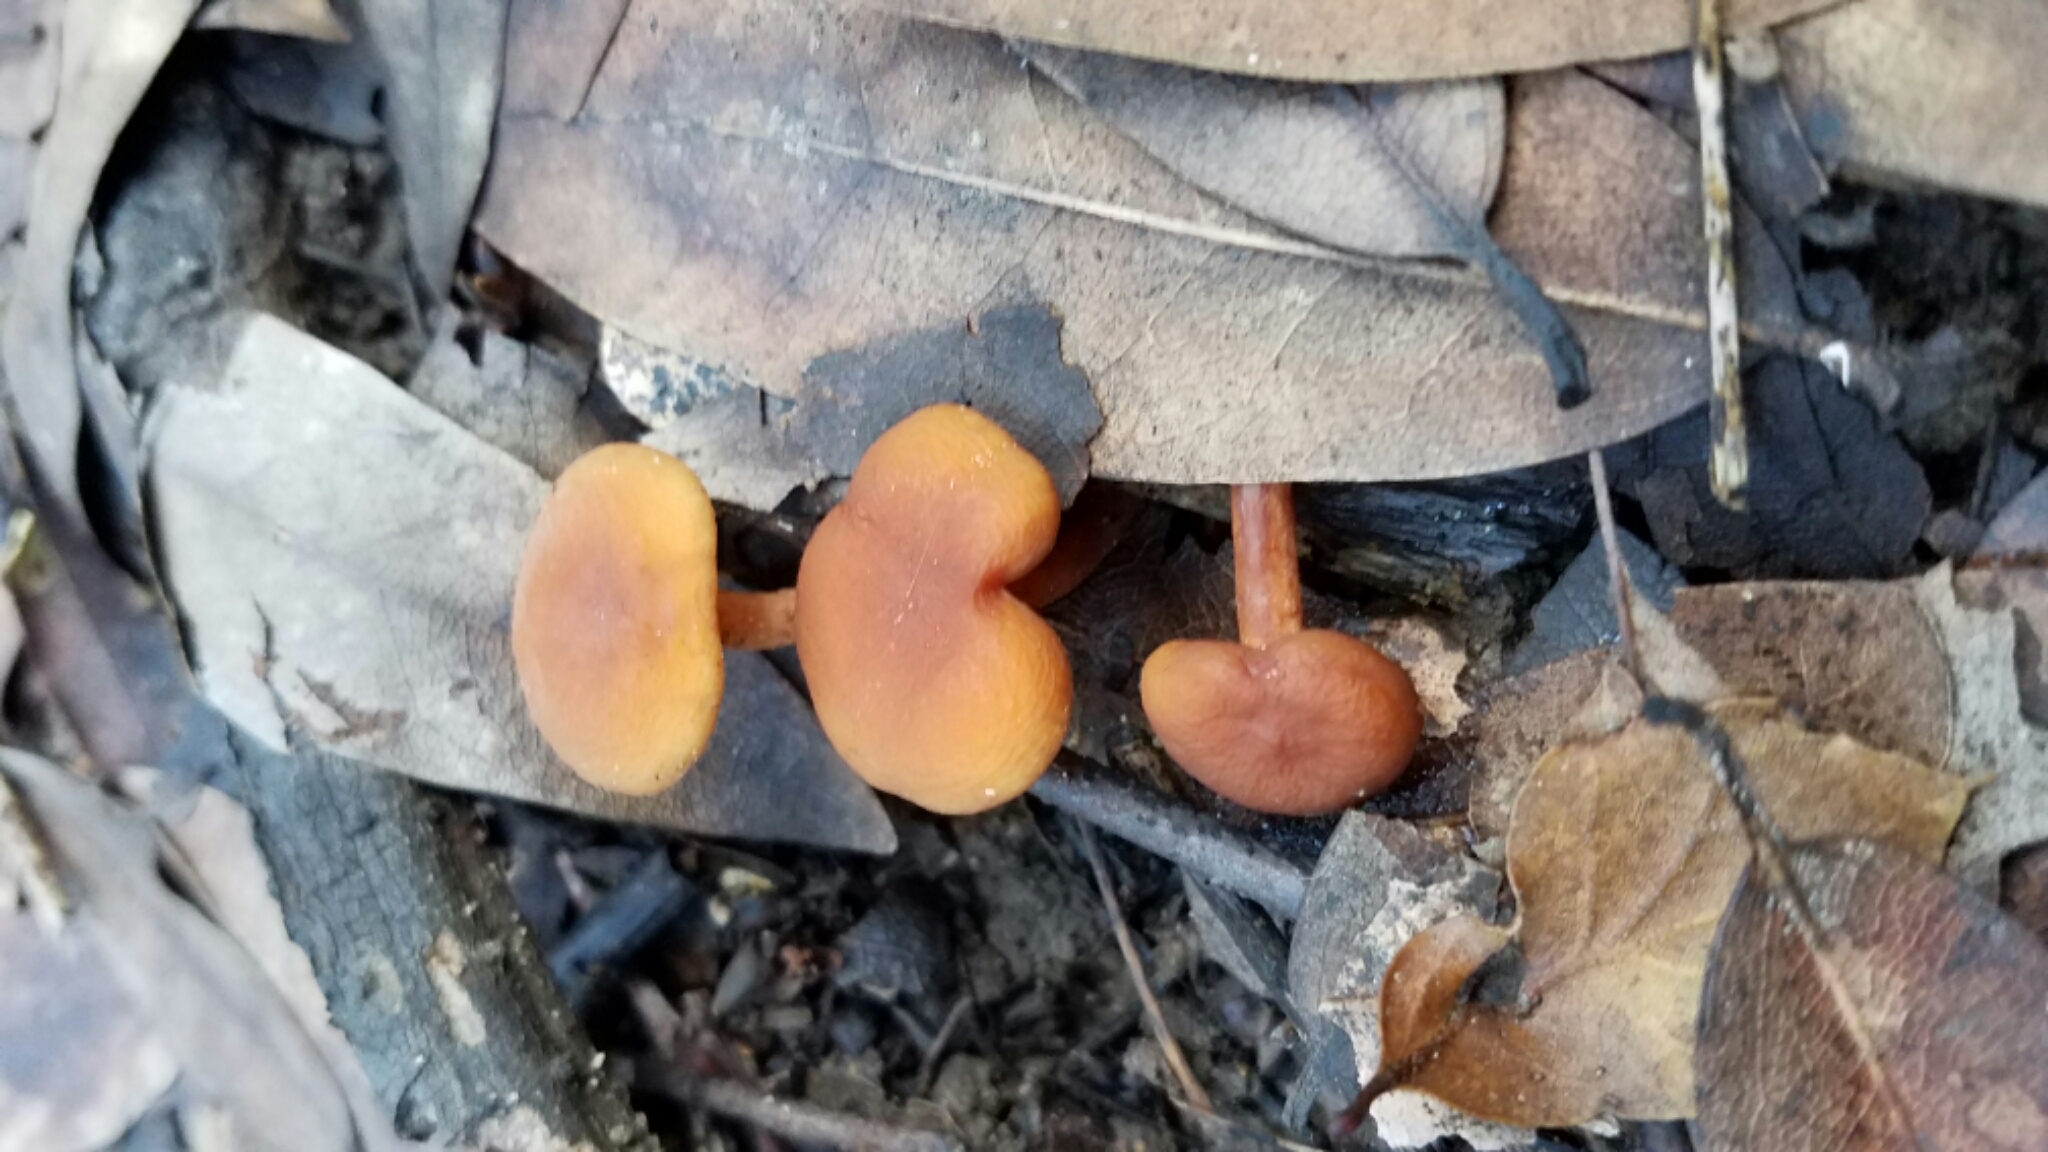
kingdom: Fungi
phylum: Basidiomycota
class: Agaricomycetes
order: Russulales
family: Russulaceae
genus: Lactarius
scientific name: Lactarius rubidus
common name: Candy cap
